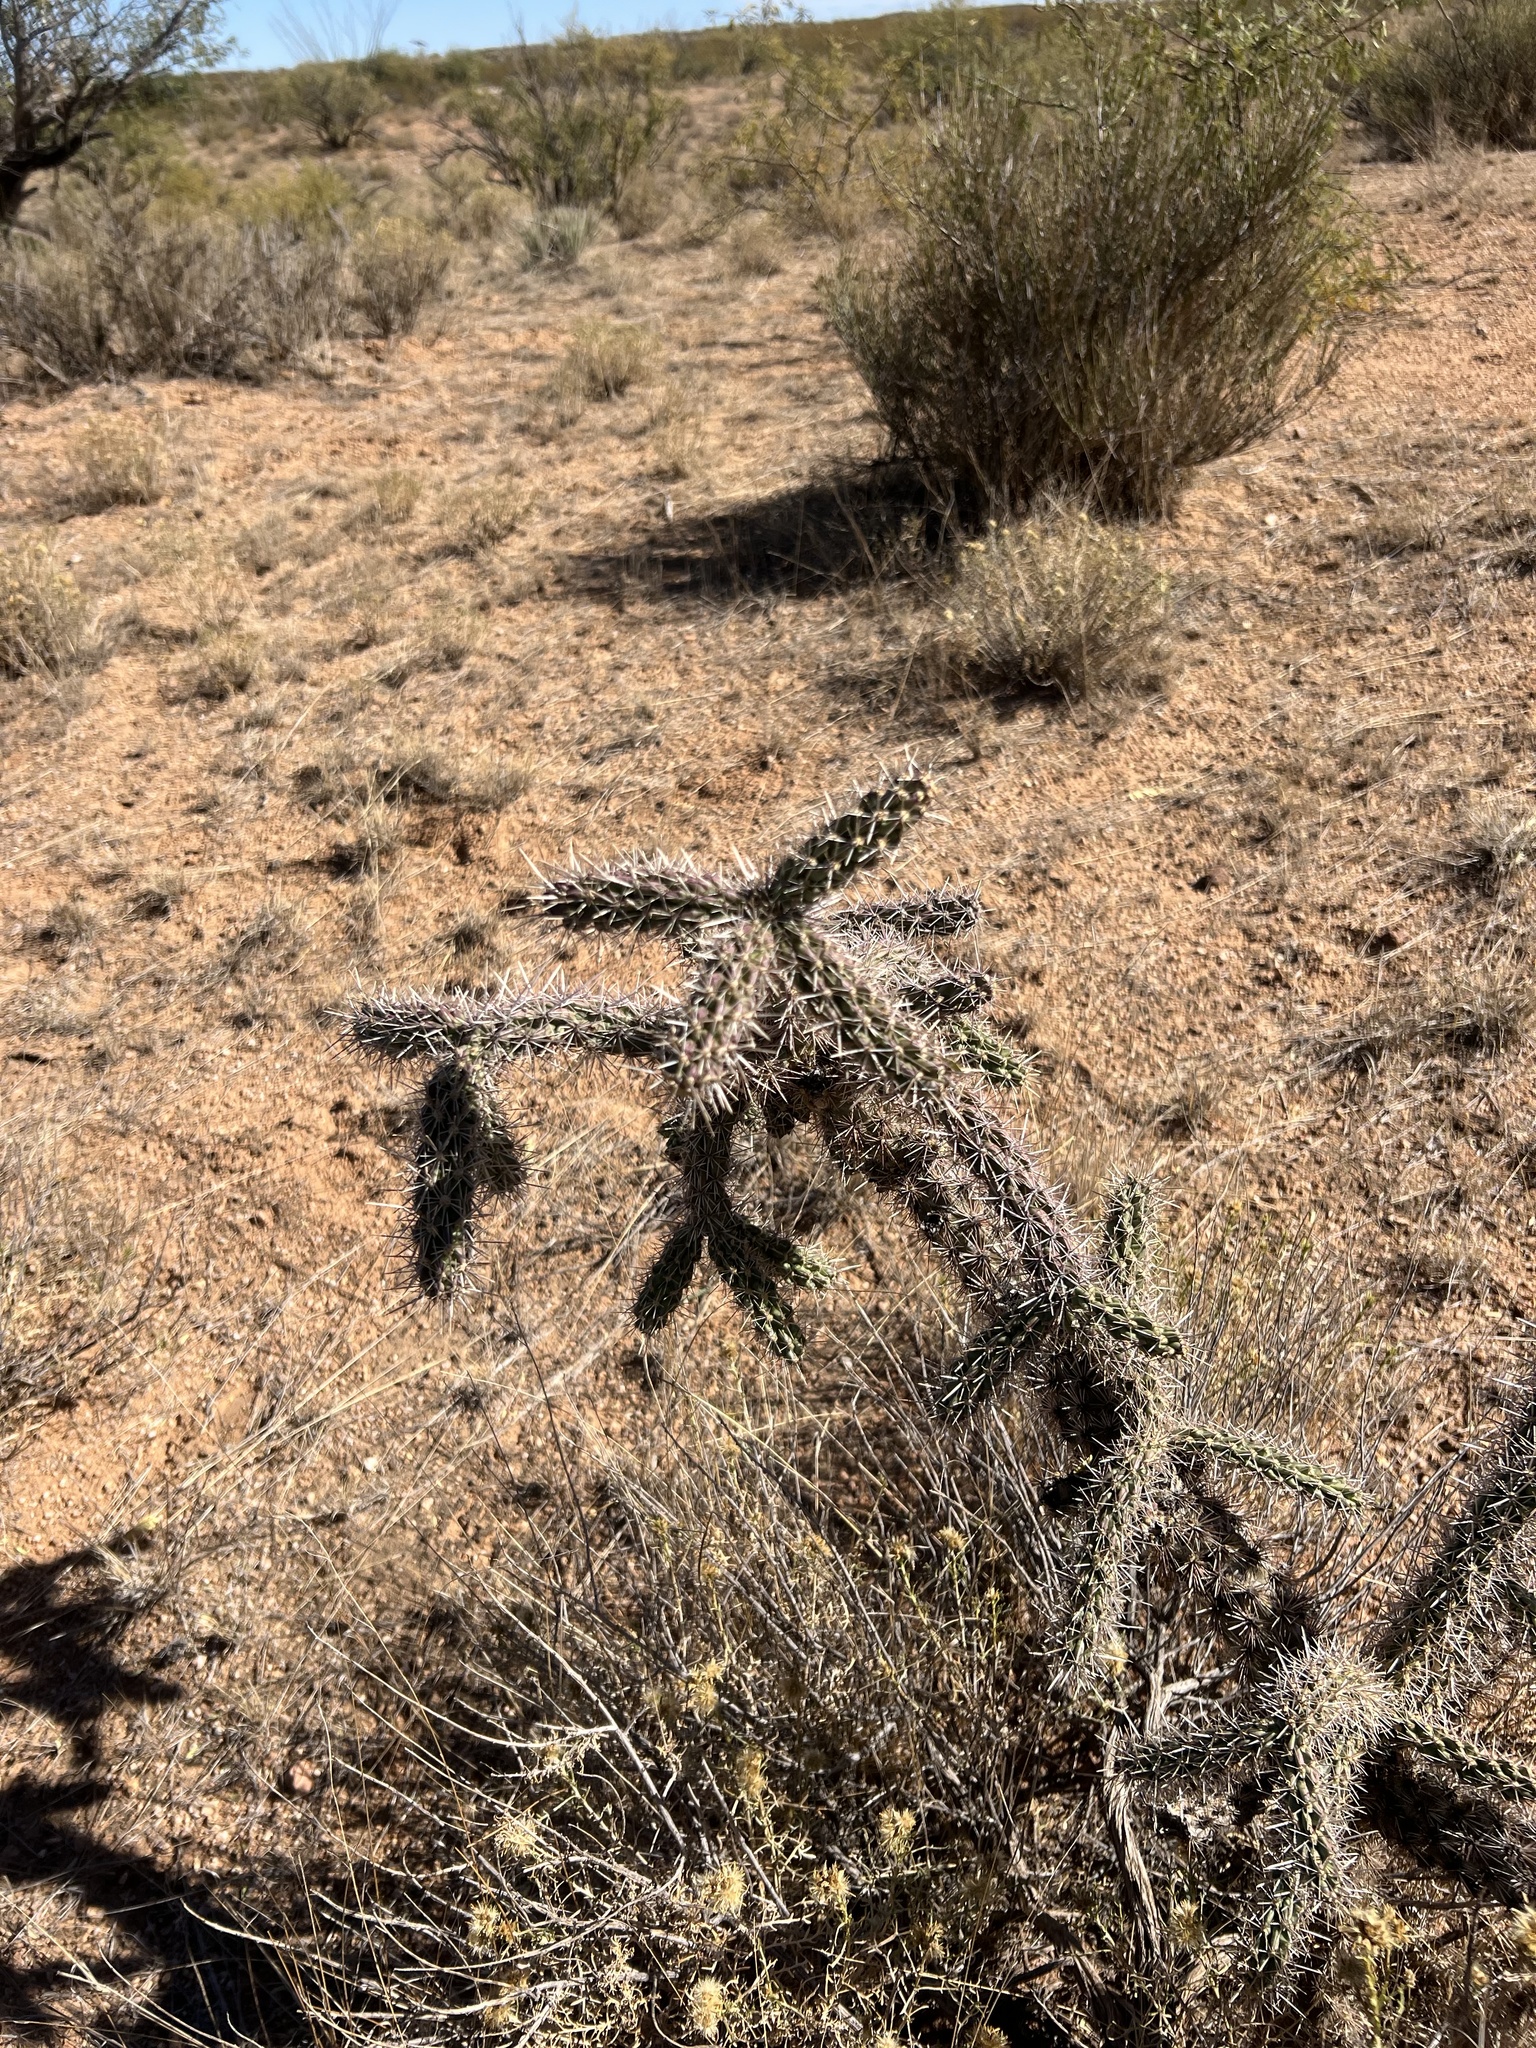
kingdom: Plantae
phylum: Tracheophyta
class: Magnoliopsida
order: Caryophyllales
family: Cactaceae
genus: Cylindropuntia
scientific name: Cylindropuntia imbricata
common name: Candelabrum cactus
